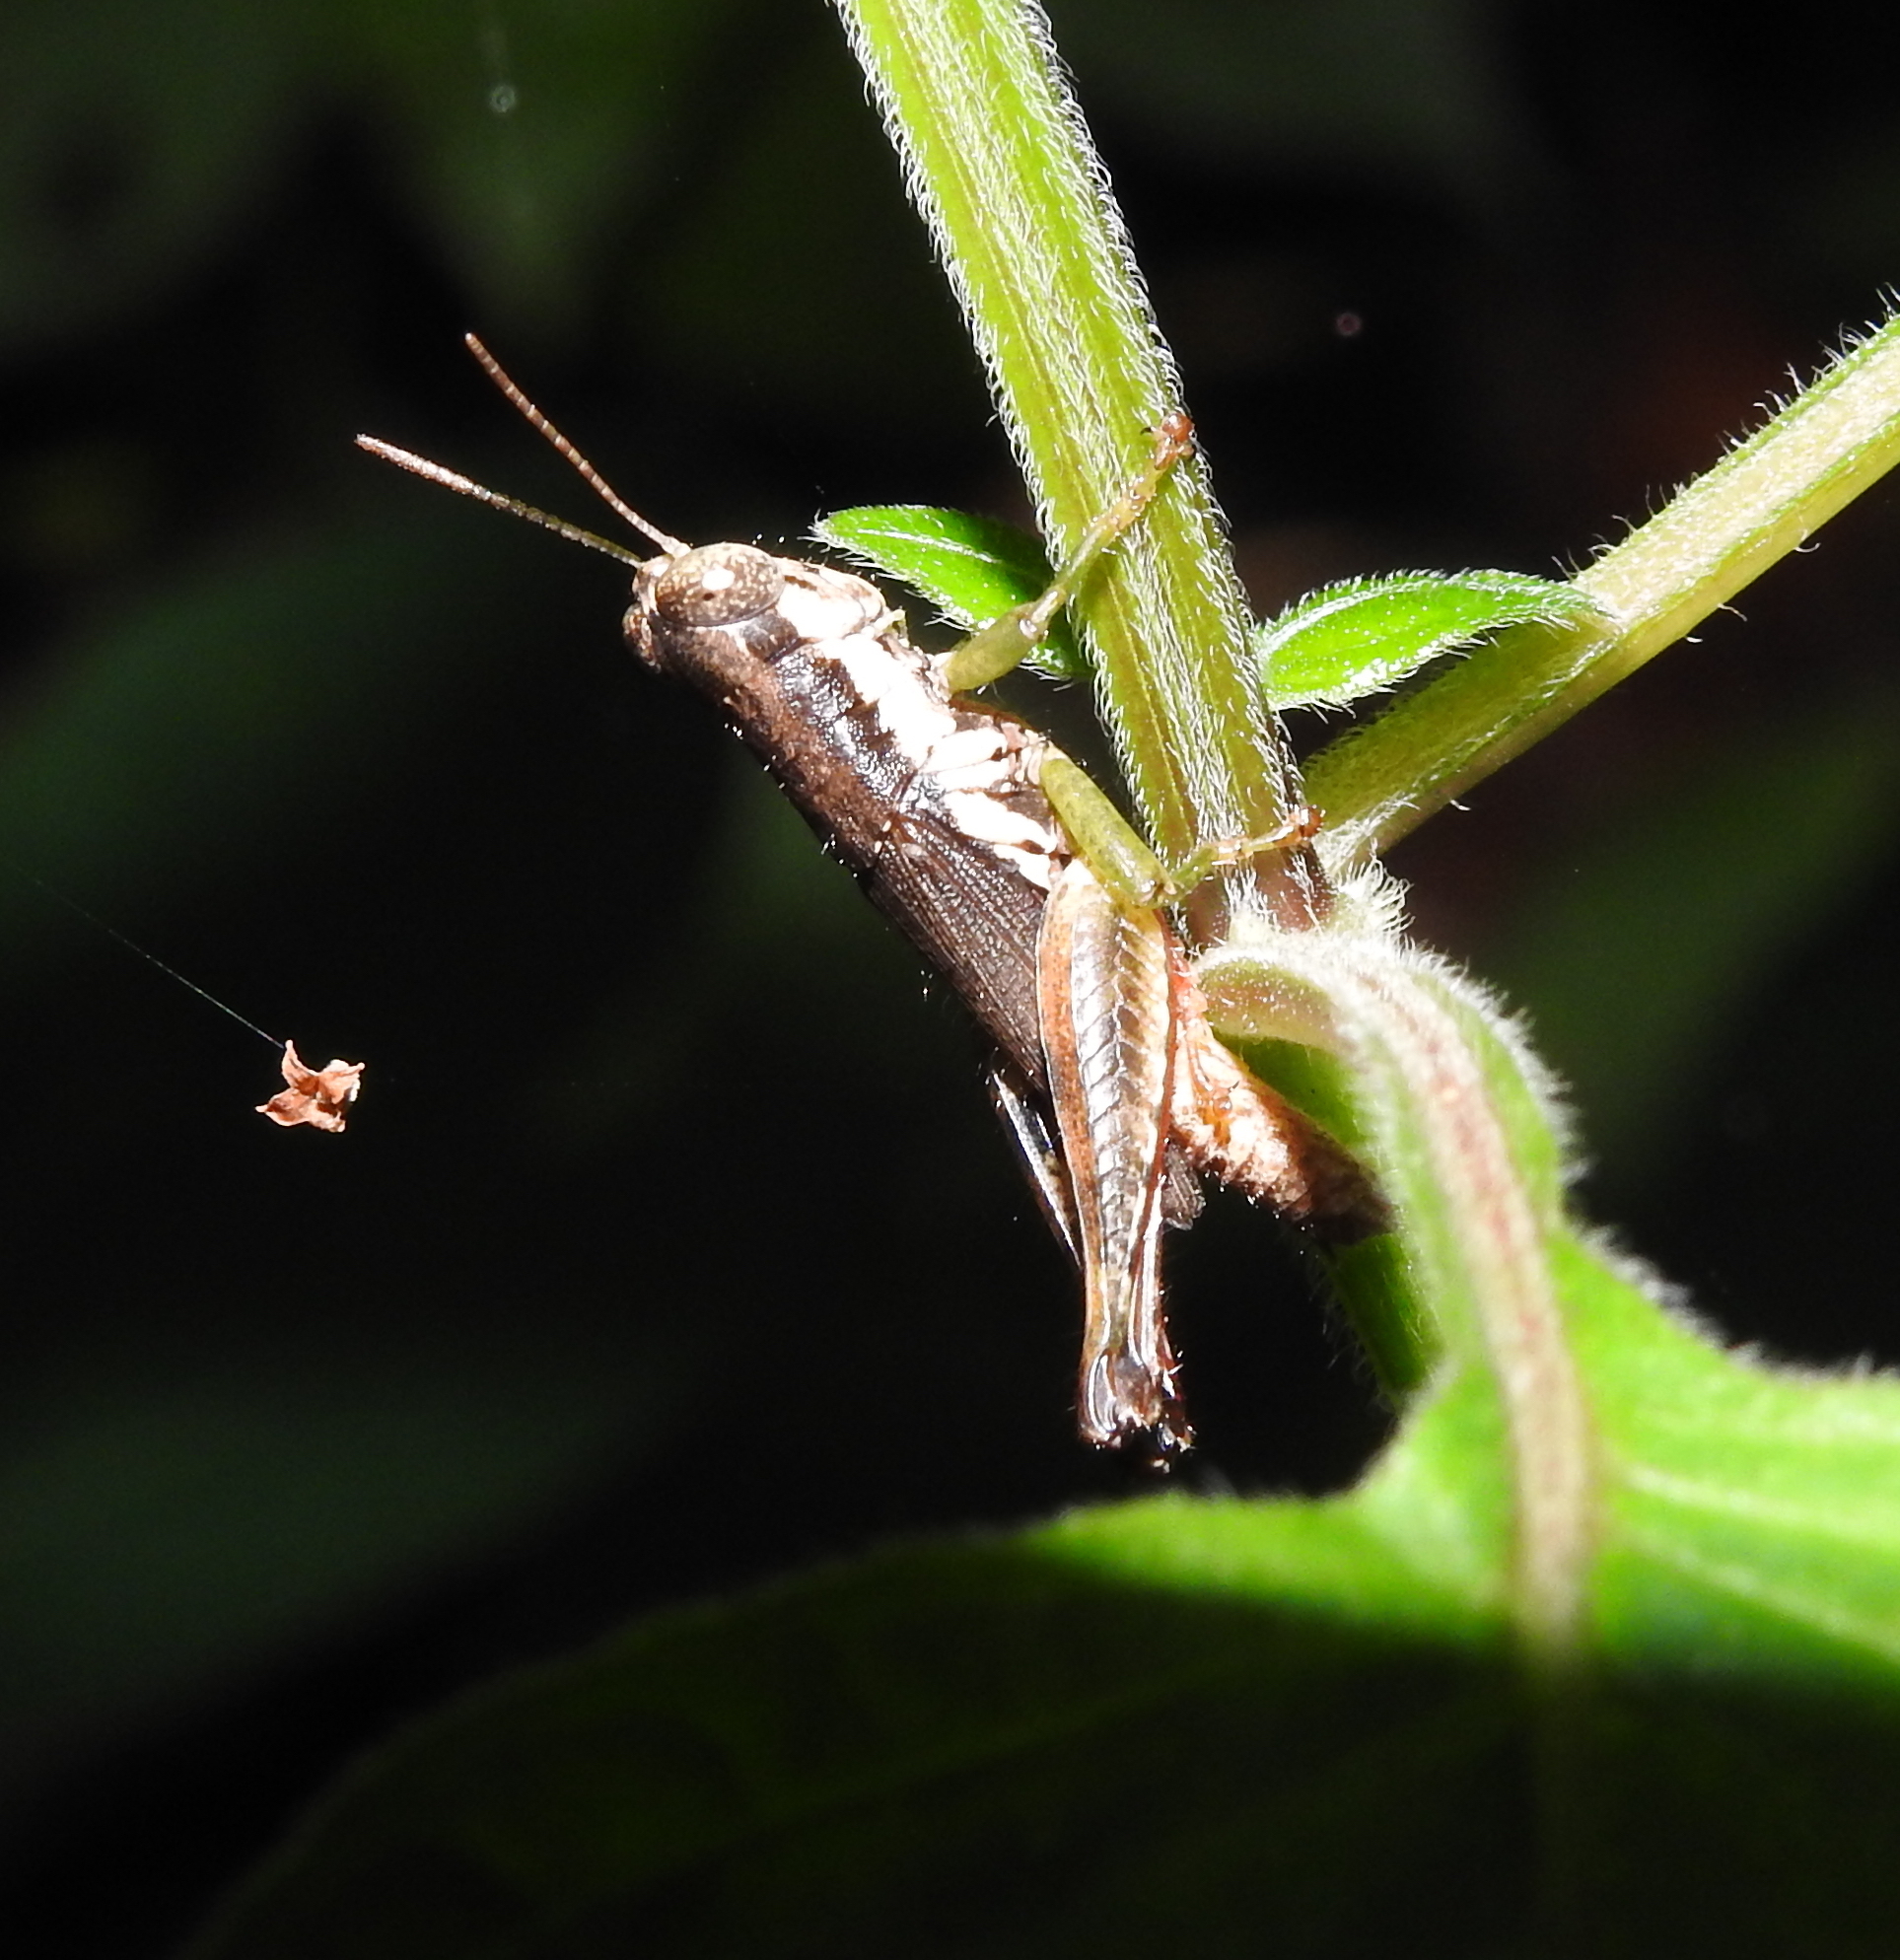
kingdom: Animalia
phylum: Arthropoda
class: Insecta
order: Orthoptera
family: Acrididae
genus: Pseudoxya
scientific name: Pseudoxya diminuta
